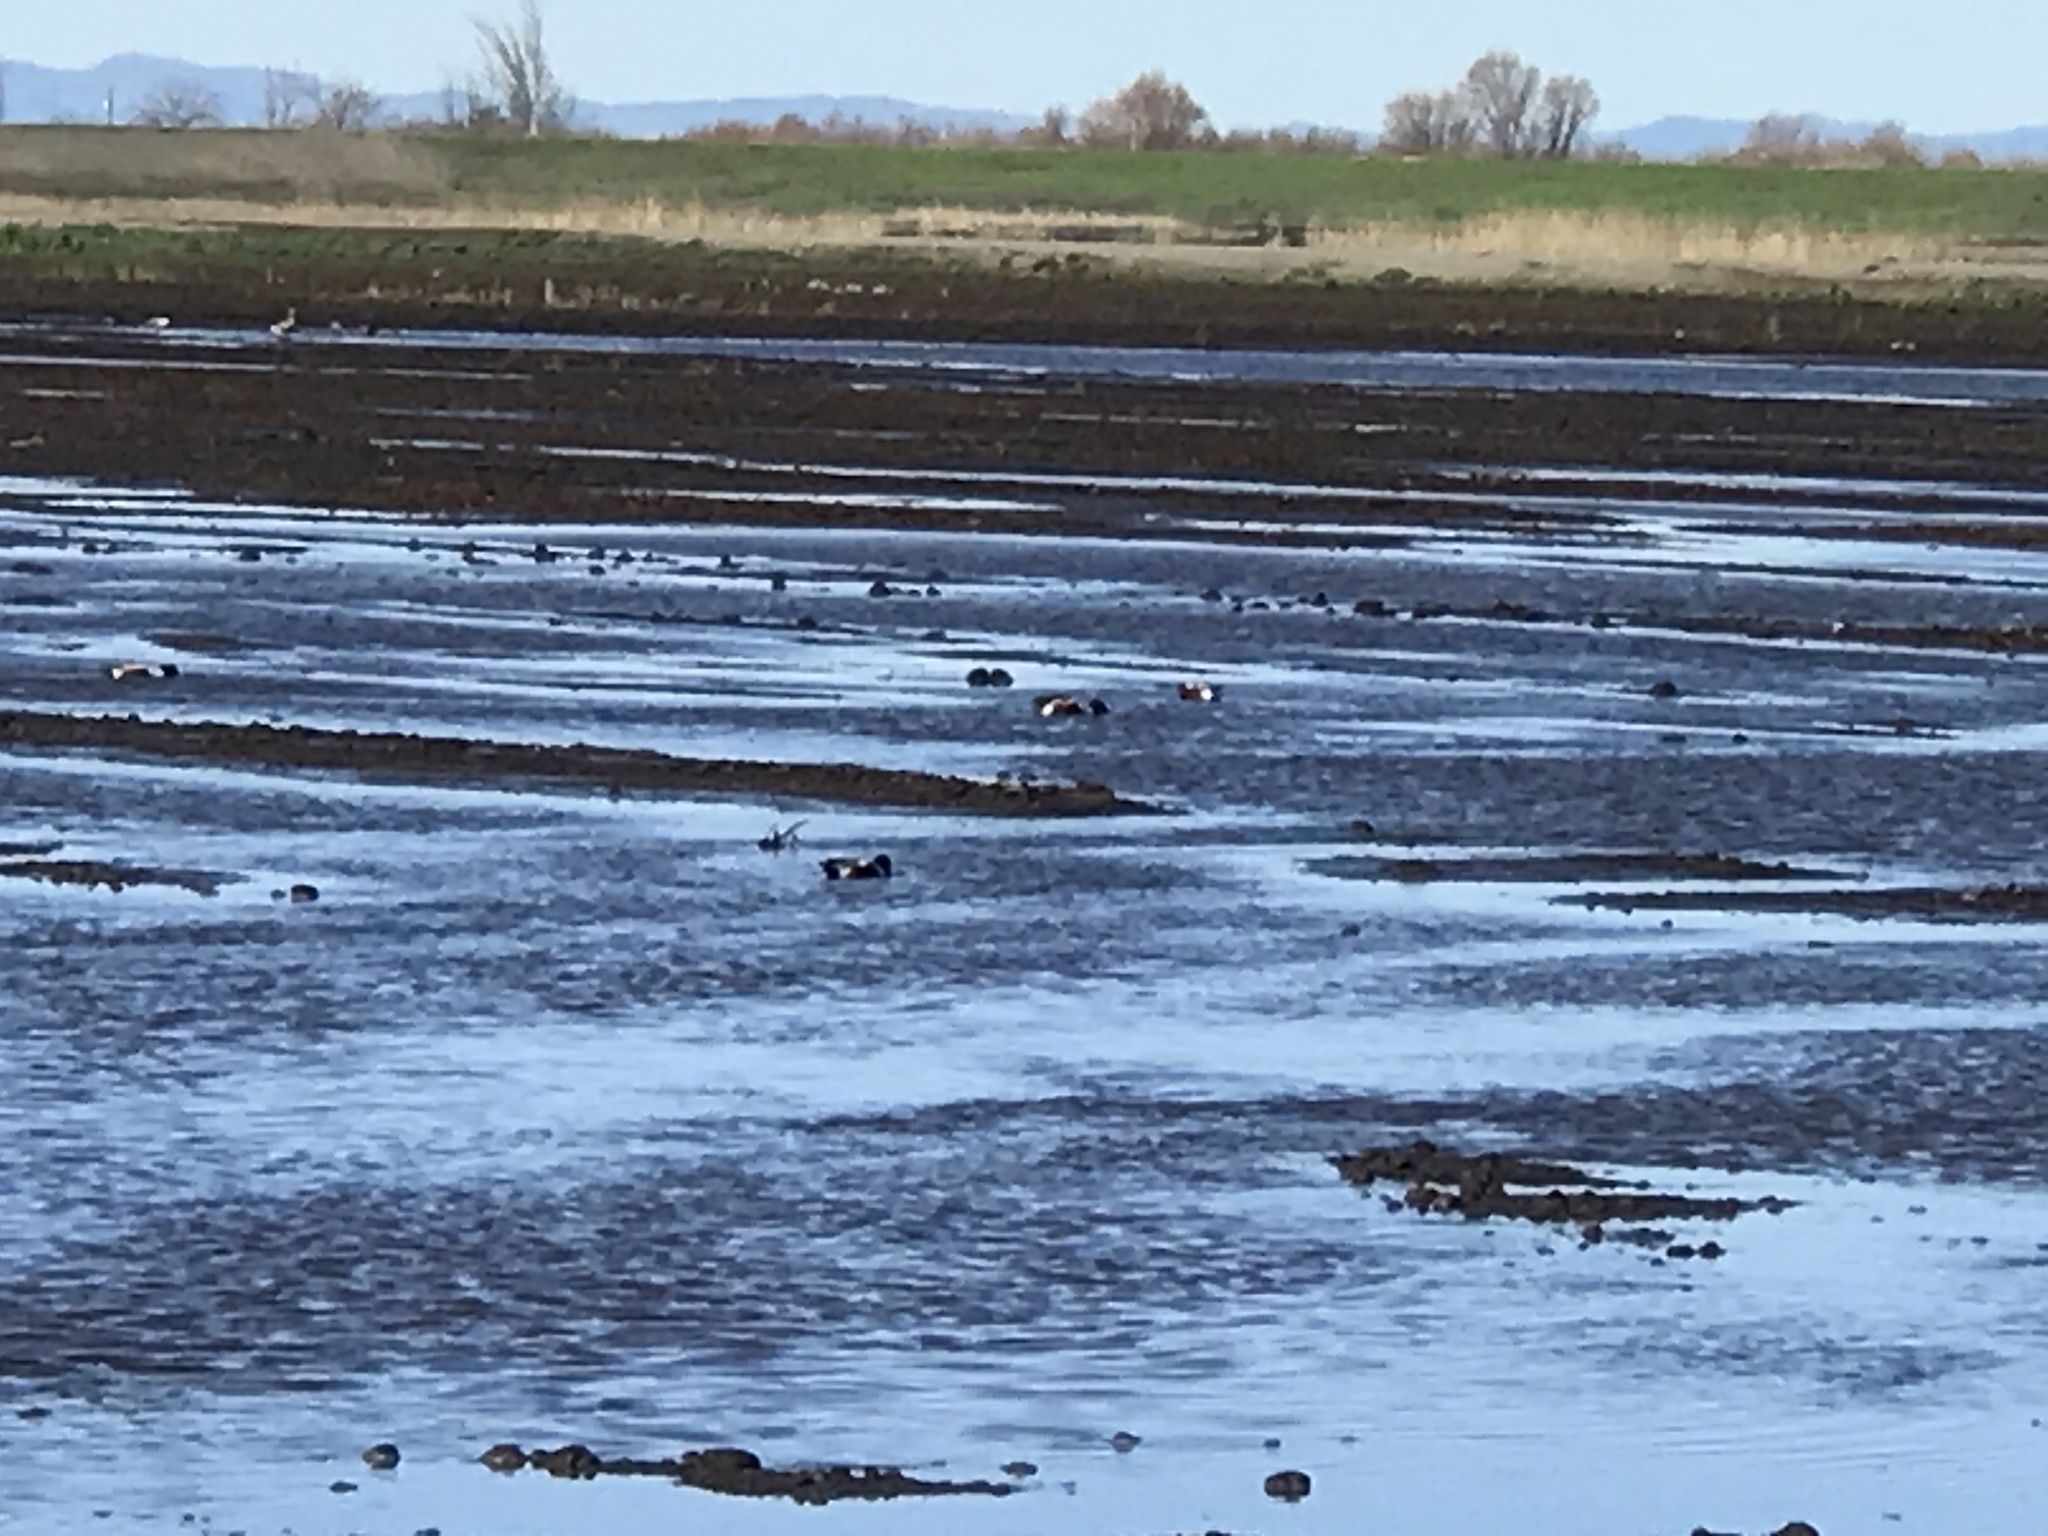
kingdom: Animalia
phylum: Chordata
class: Aves
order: Anseriformes
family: Anatidae
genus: Spatula
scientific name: Spatula clypeata
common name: Northern shoveler
